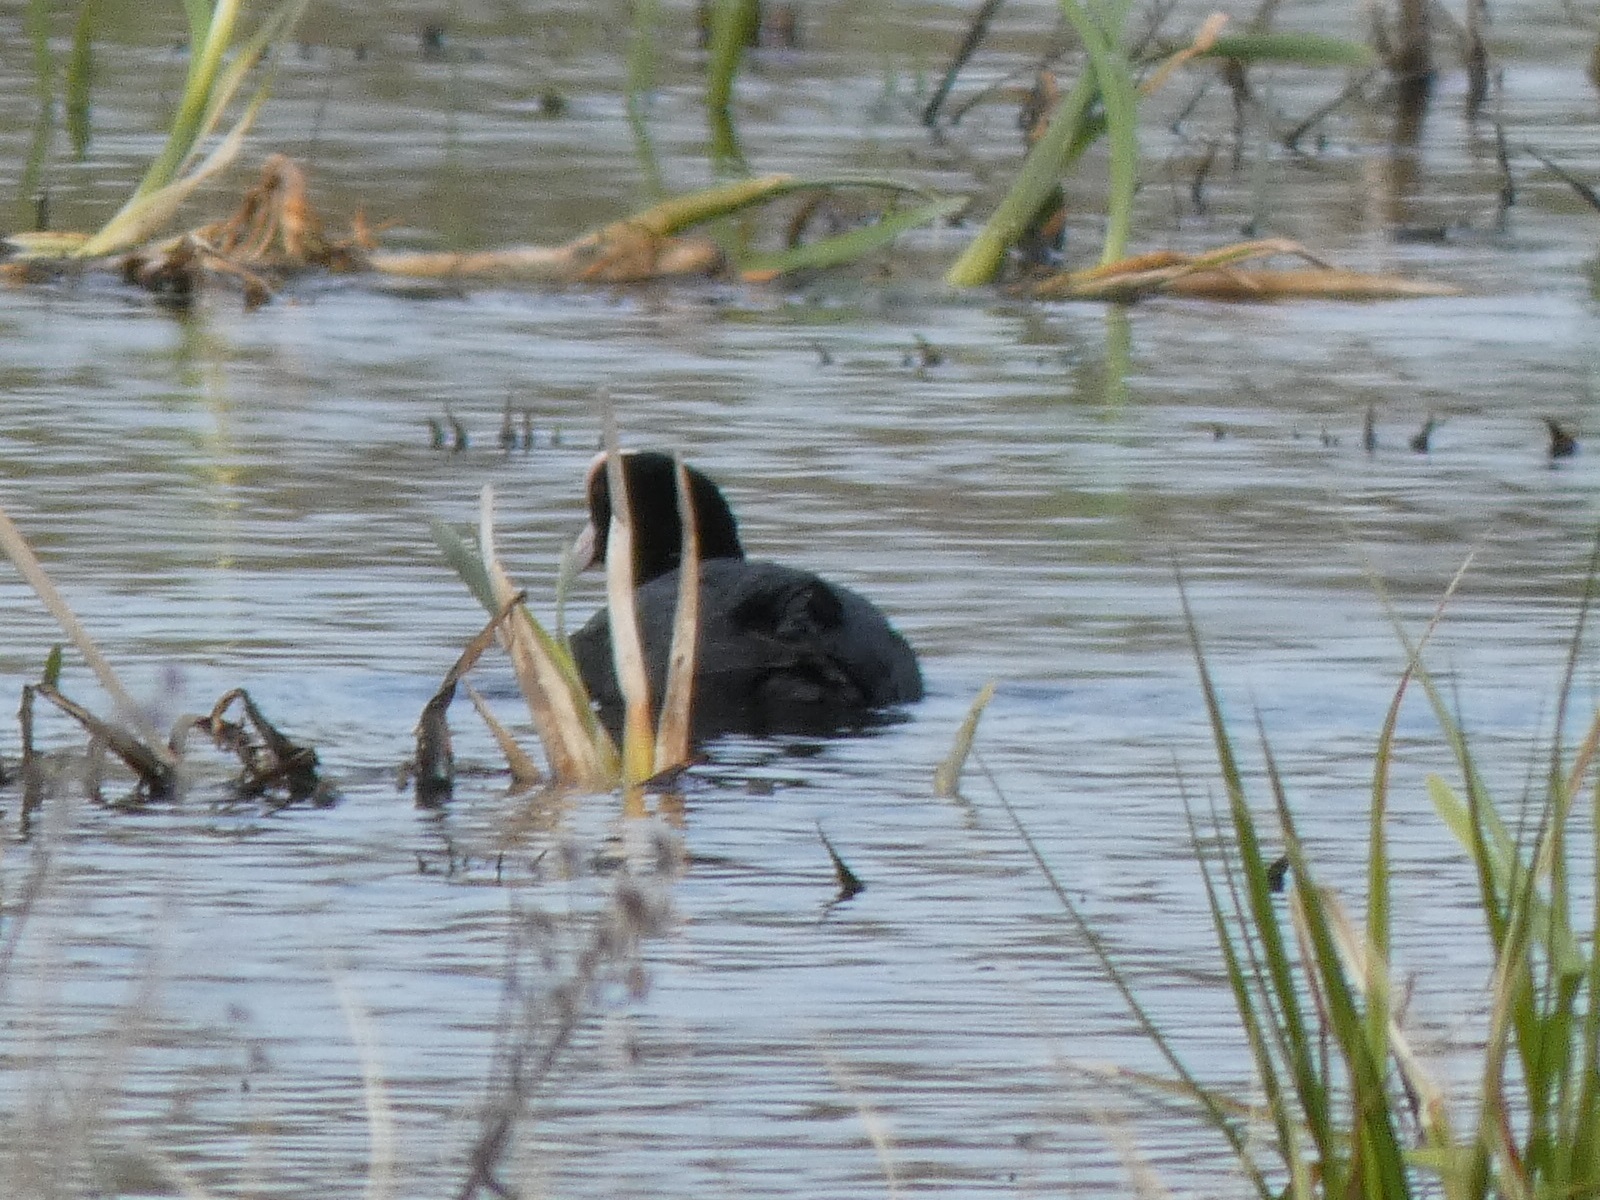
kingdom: Animalia
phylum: Chordata
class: Aves
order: Gruiformes
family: Rallidae
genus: Fulica
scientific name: Fulica atra
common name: Eurasian coot
